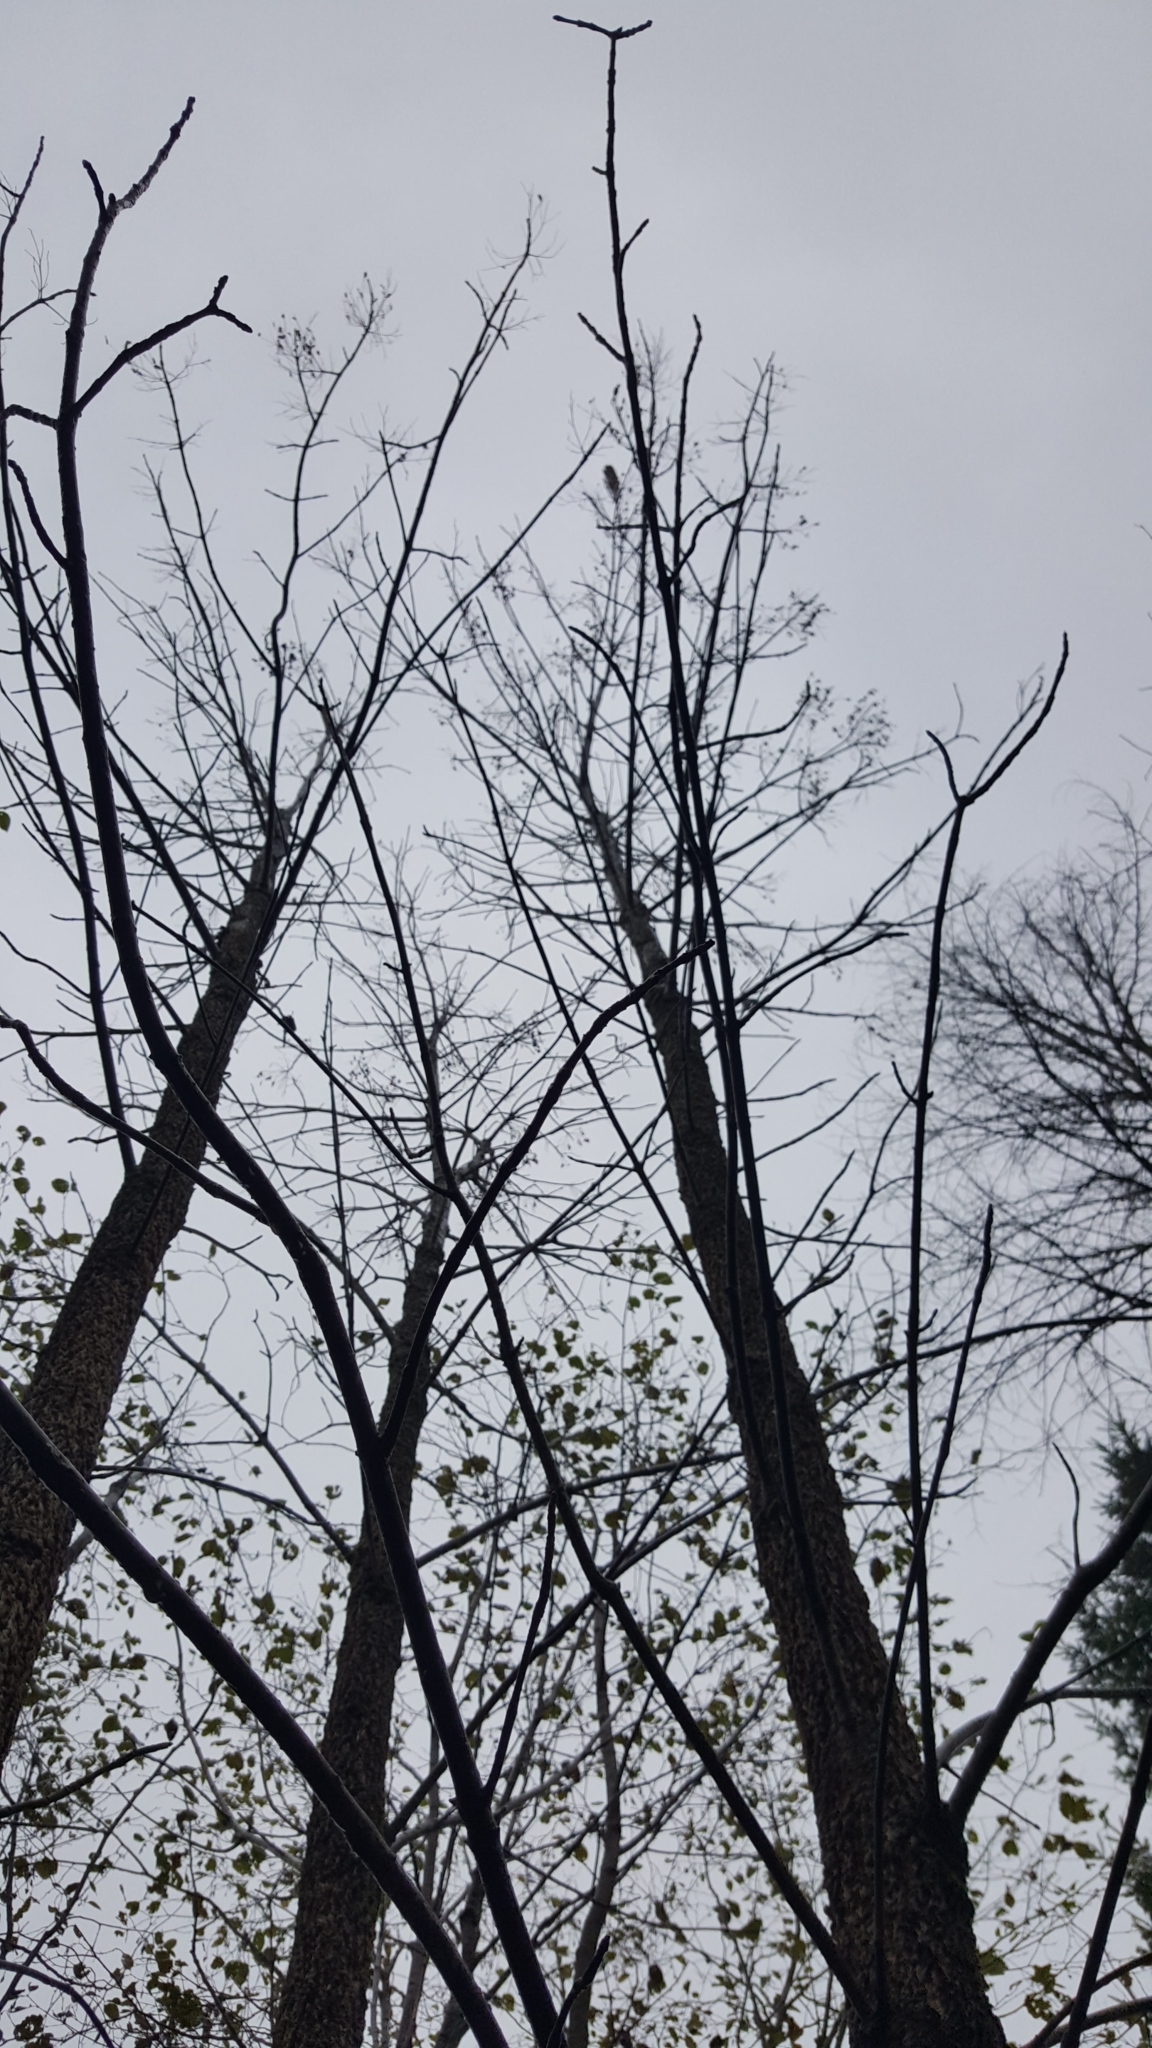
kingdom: Plantae
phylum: Tracheophyta
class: Magnoliopsida
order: Lamiales
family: Oleaceae
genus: Fraxinus
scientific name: Fraxinus nigra
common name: Black ash
